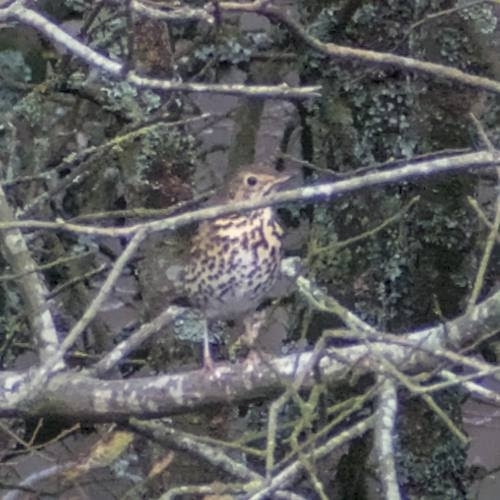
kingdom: Animalia
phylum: Chordata
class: Aves
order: Passeriformes
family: Turdidae
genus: Turdus
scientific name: Turdus philomelos
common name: Song thrush
